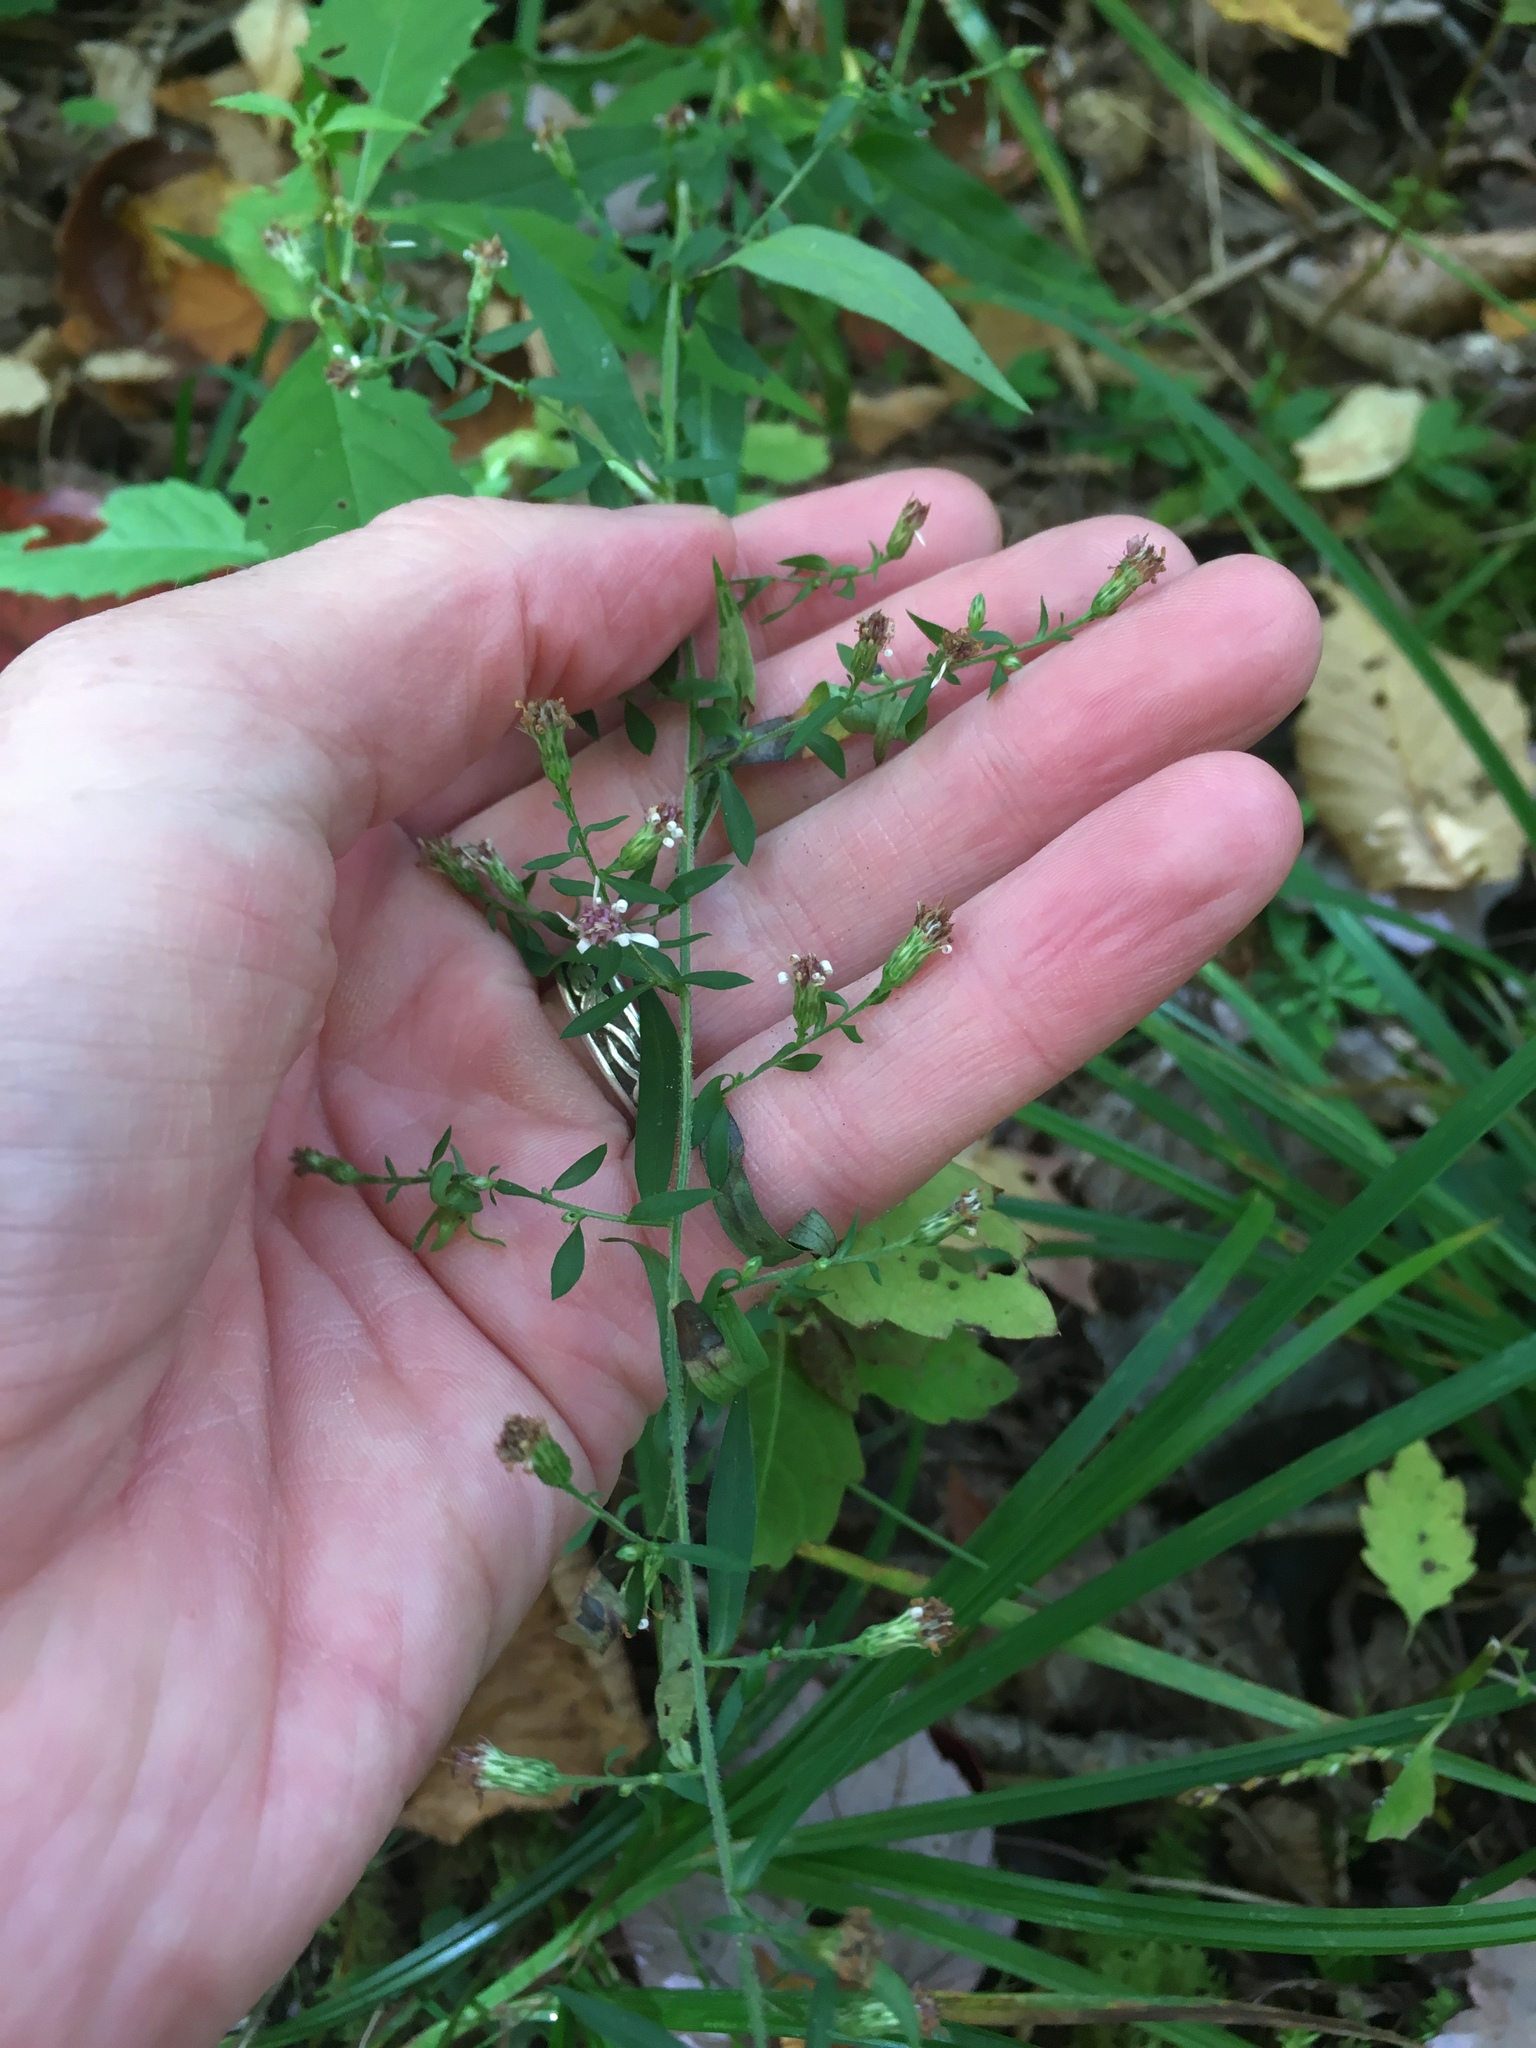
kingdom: Plantae
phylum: Tracheophyta
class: Magnoliopsida
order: Asterales
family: Asteraceae
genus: Symphyotrichum
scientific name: Symphyotrichum lateriflorum
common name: Calico aster
